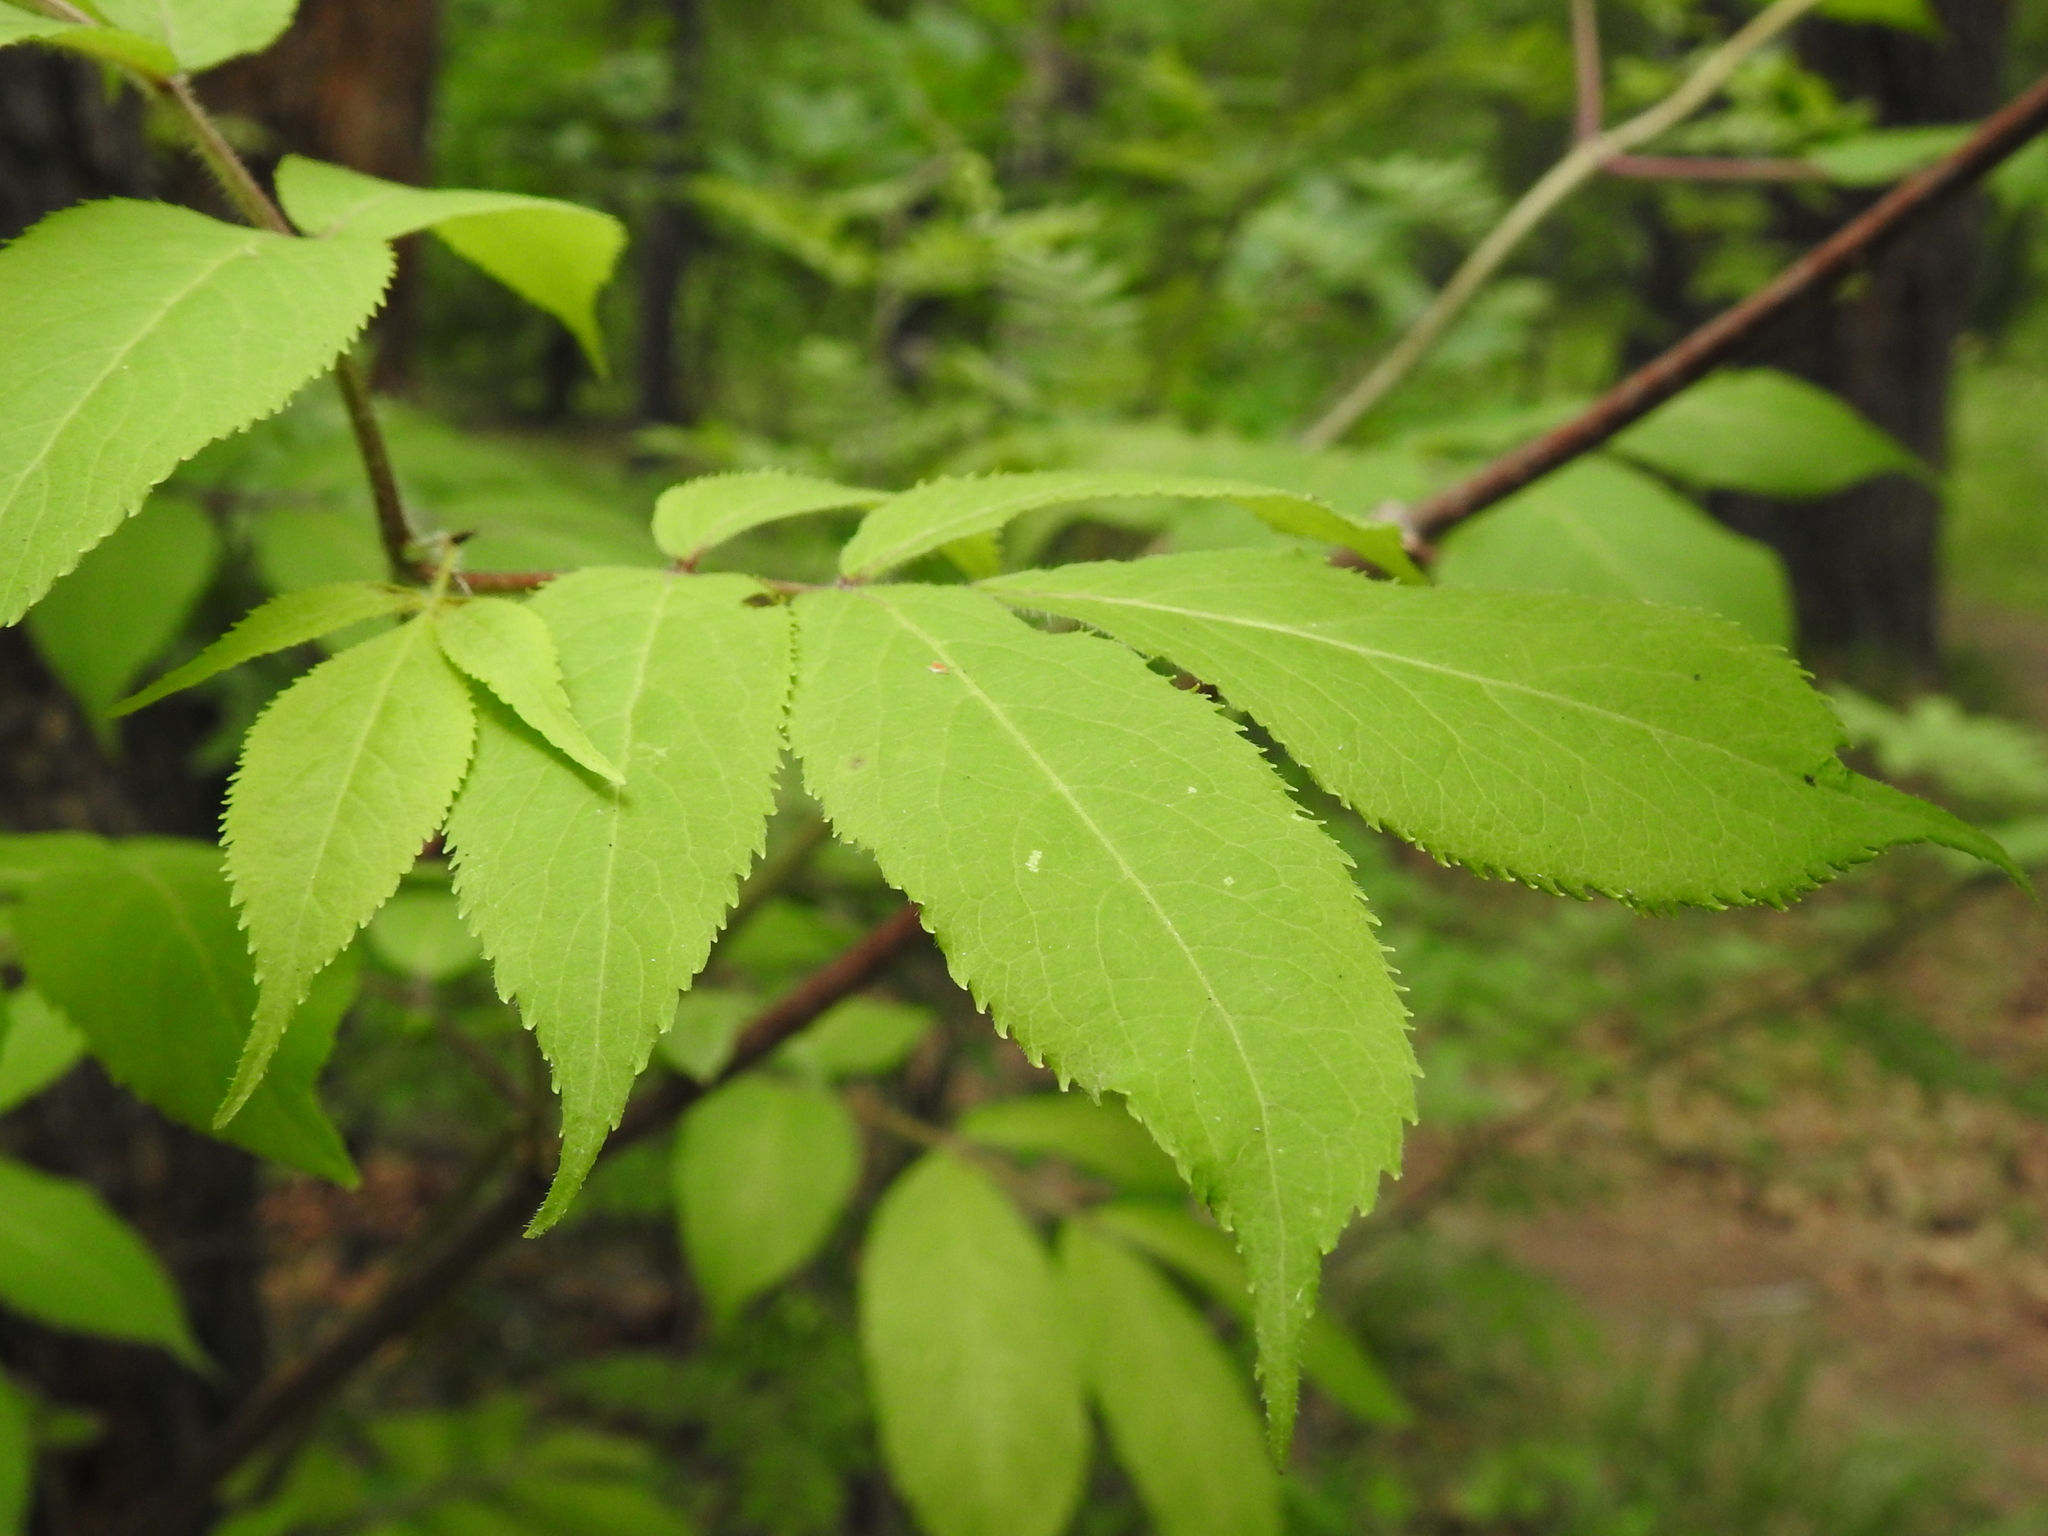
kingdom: Plantae
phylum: Tracheophyta
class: Magnoliopsida
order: Dipsacales
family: Viburnaceae
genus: Sambucus
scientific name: Sambucus racemosa
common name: Red-berried elder
